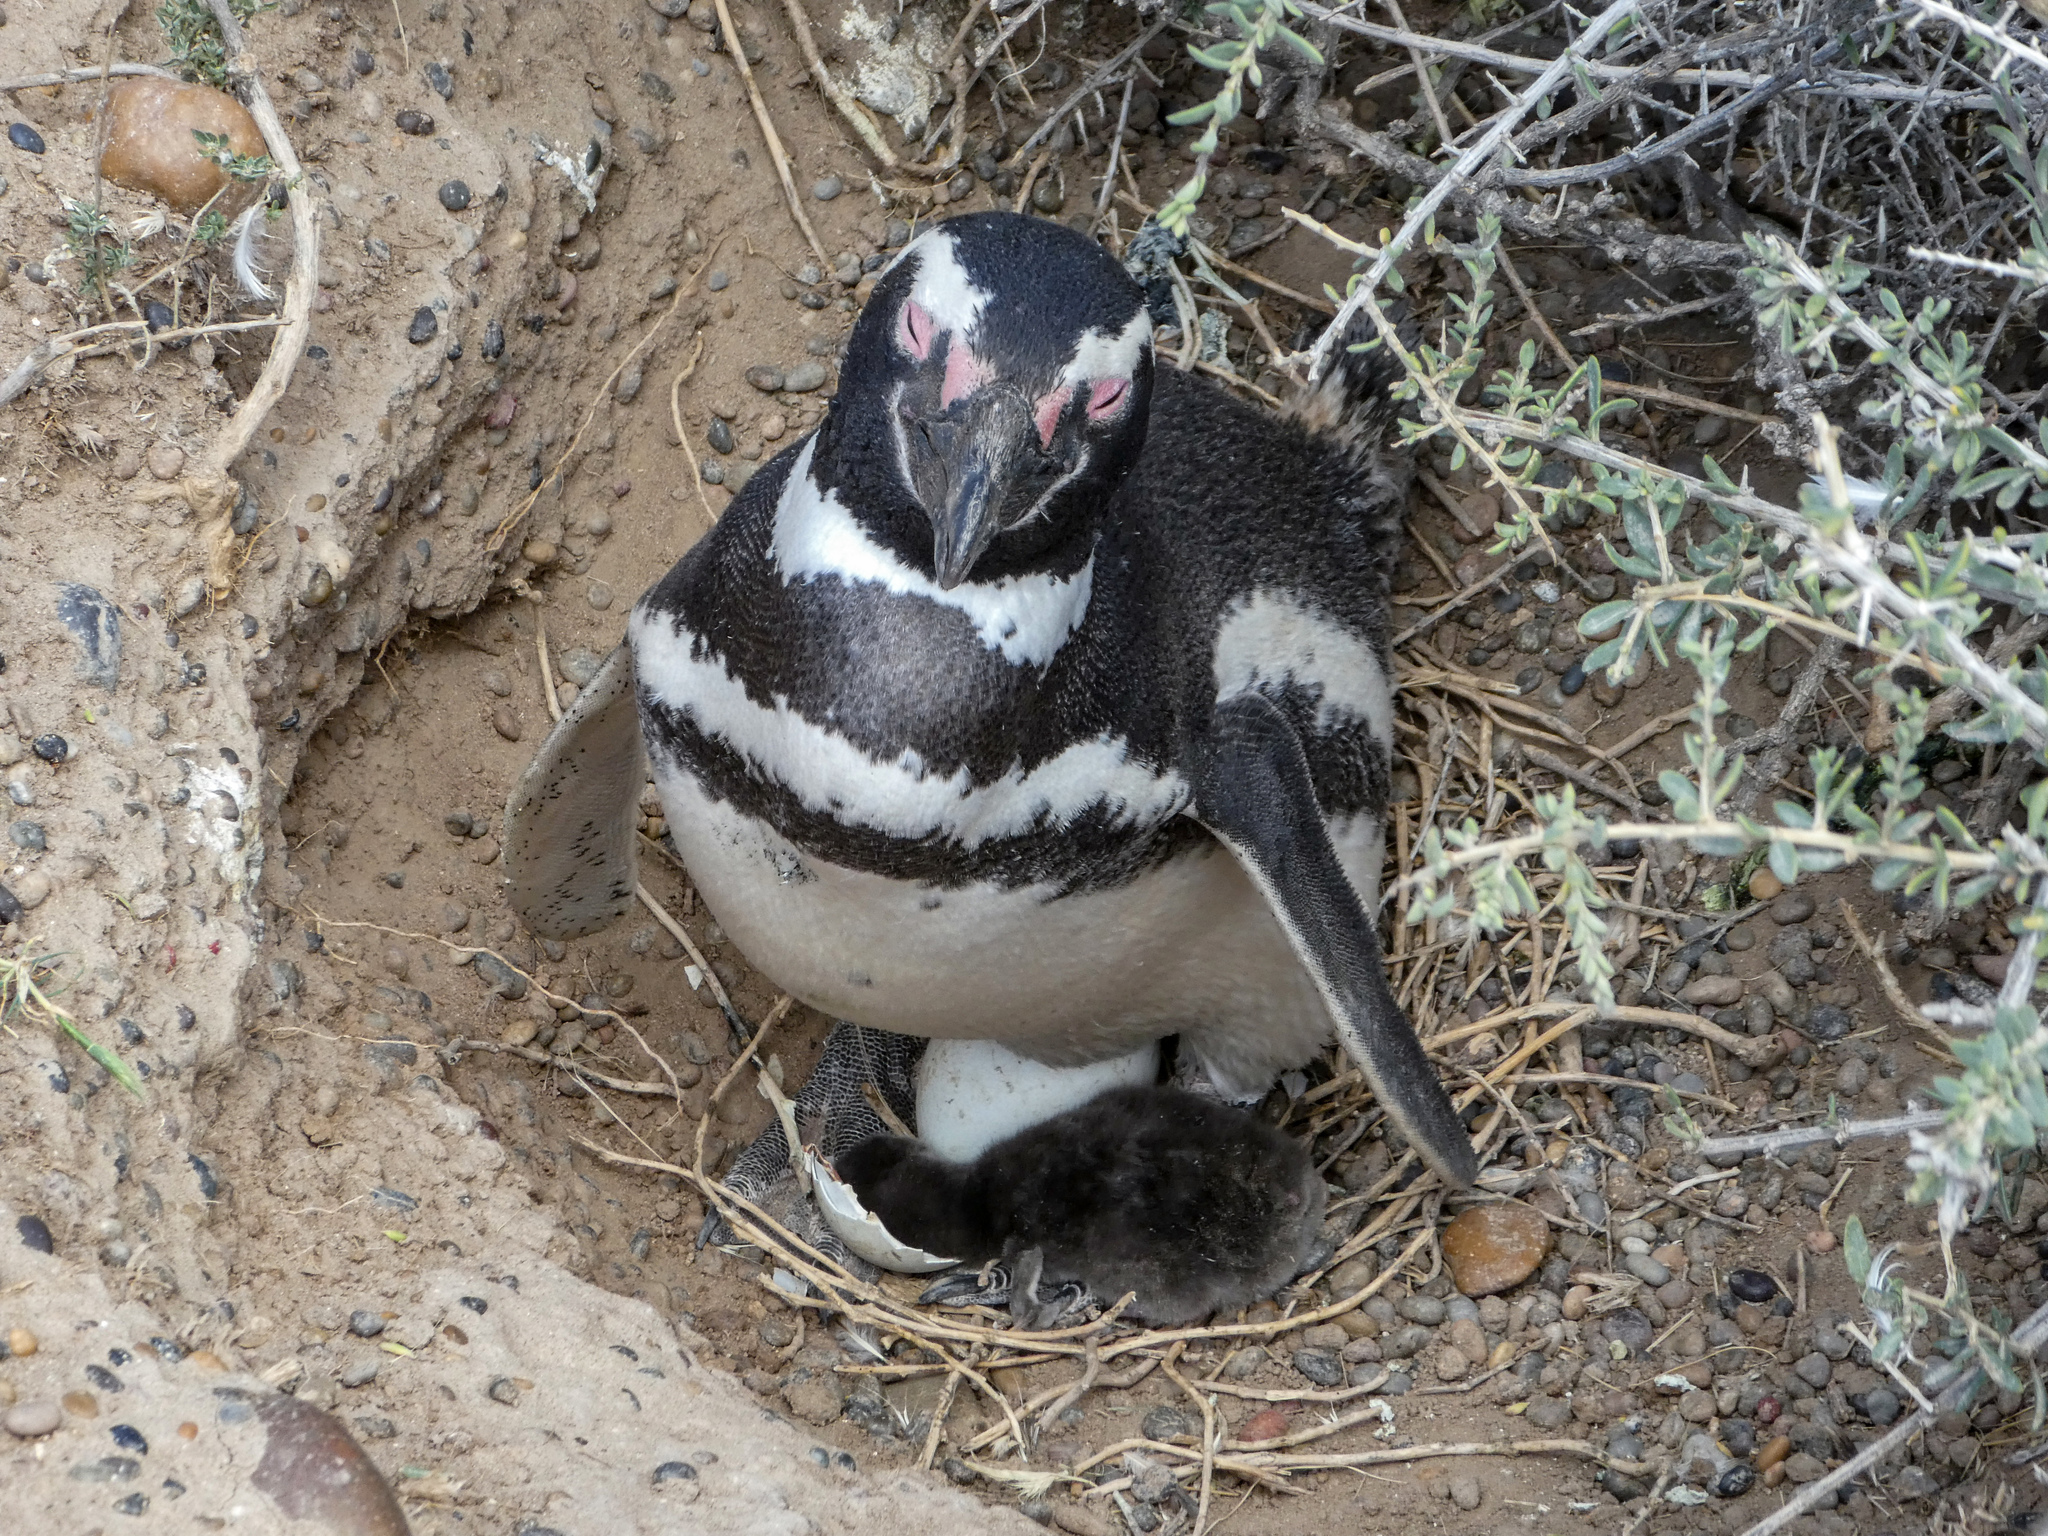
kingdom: Animalia
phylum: Chordata
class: Aves
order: Sphenisciformes
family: Spheniscidae
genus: Spheniscus
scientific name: Spheniscus magellanicus
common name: Magellanic penguin
